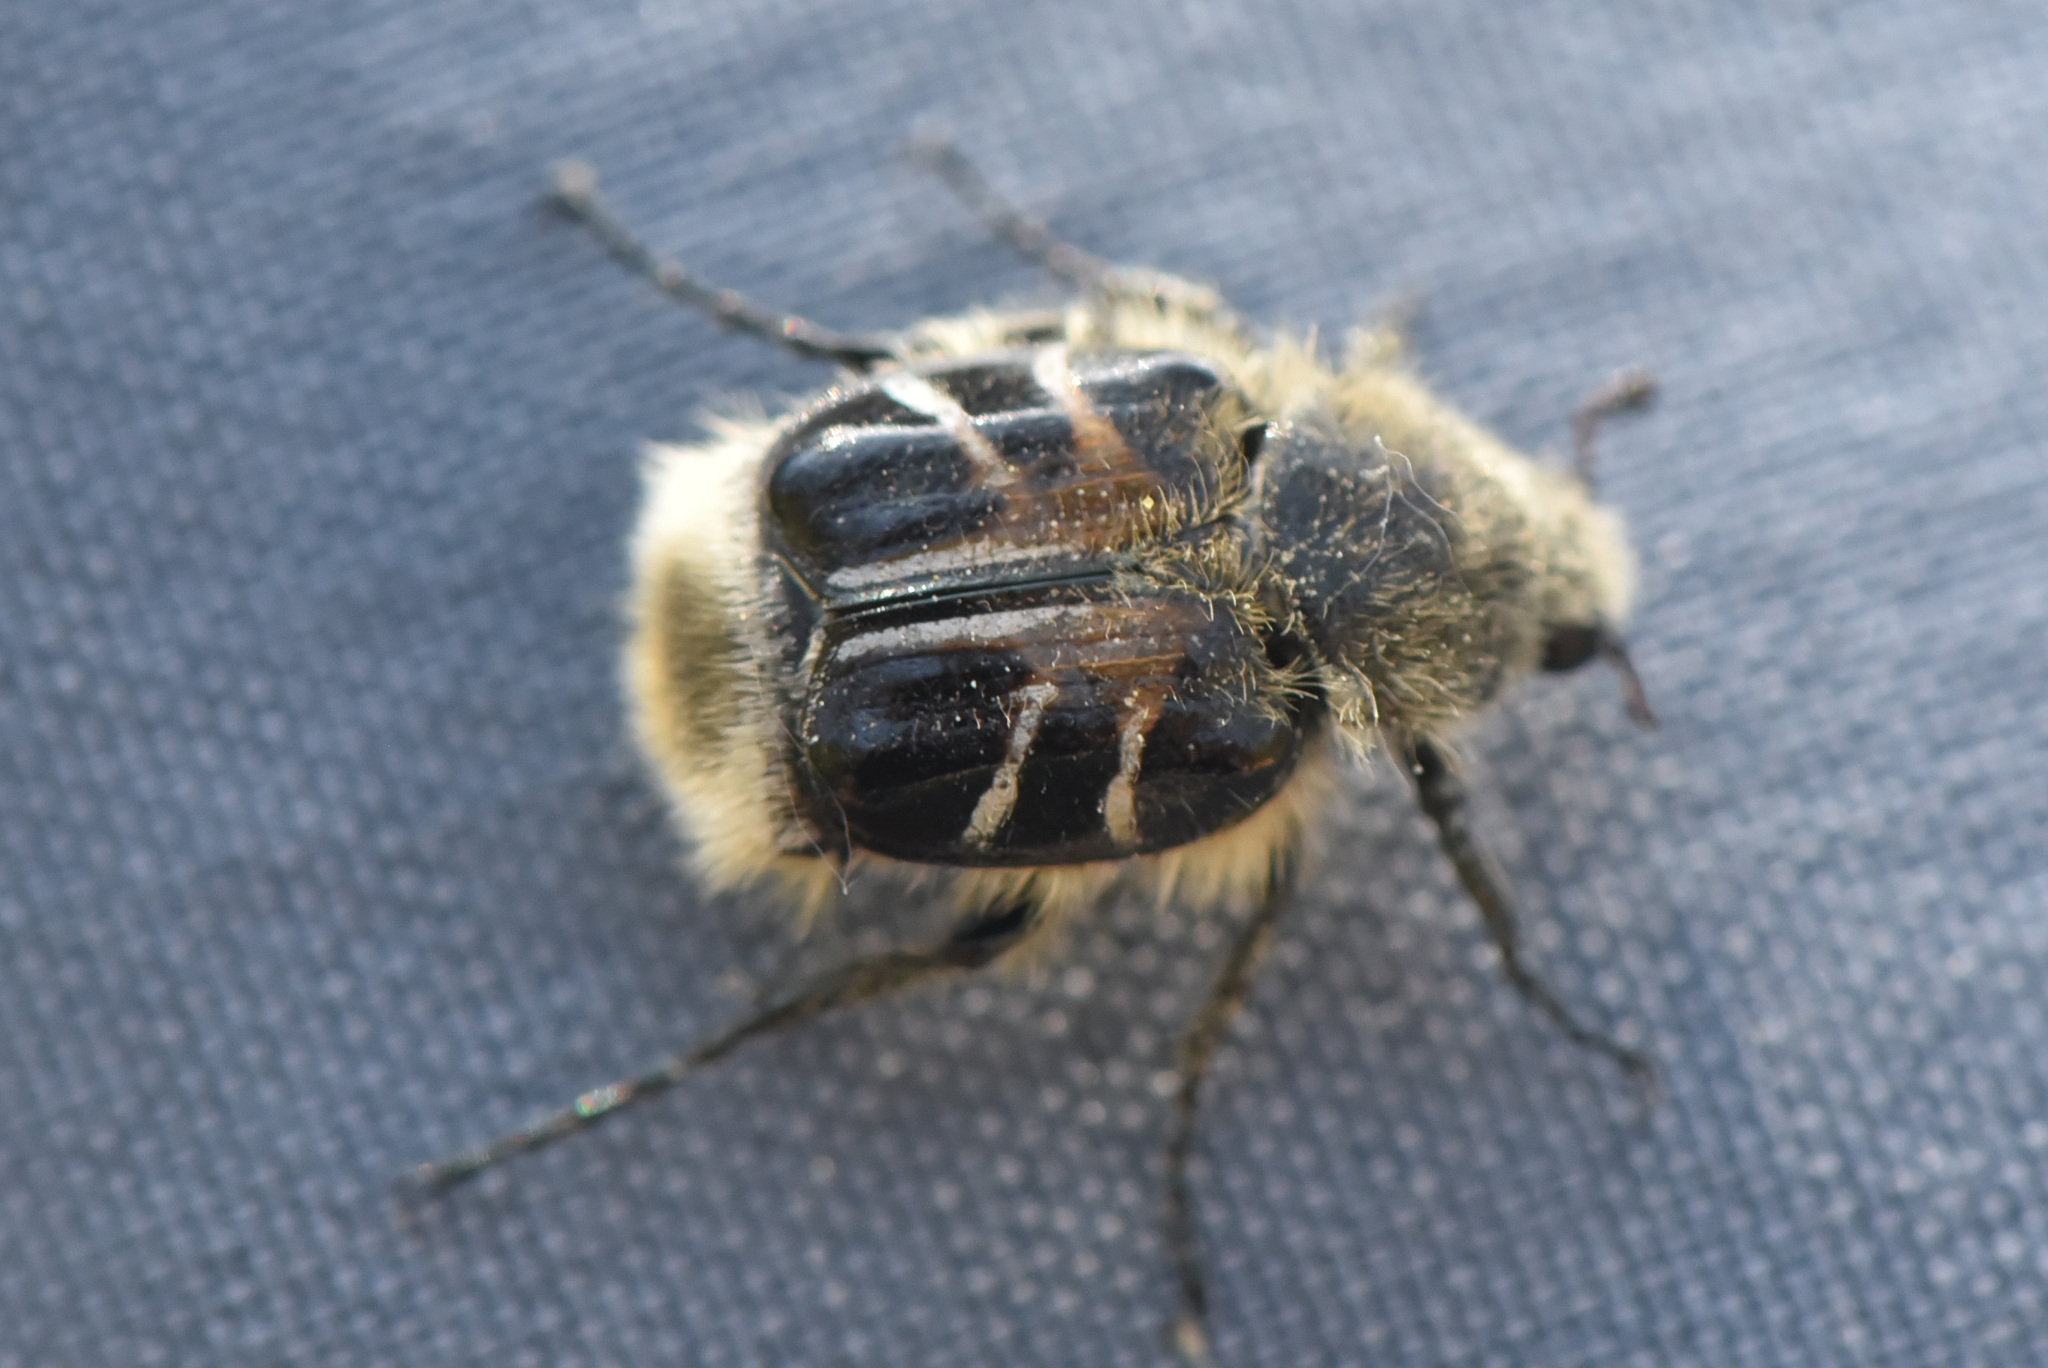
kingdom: Animalia
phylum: Arthropoda
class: Insecta
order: Coleoptera
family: Scarabaeidae
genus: Trichiotinus
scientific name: Trichiotinus assimilis
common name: Bee-mimic beetle
